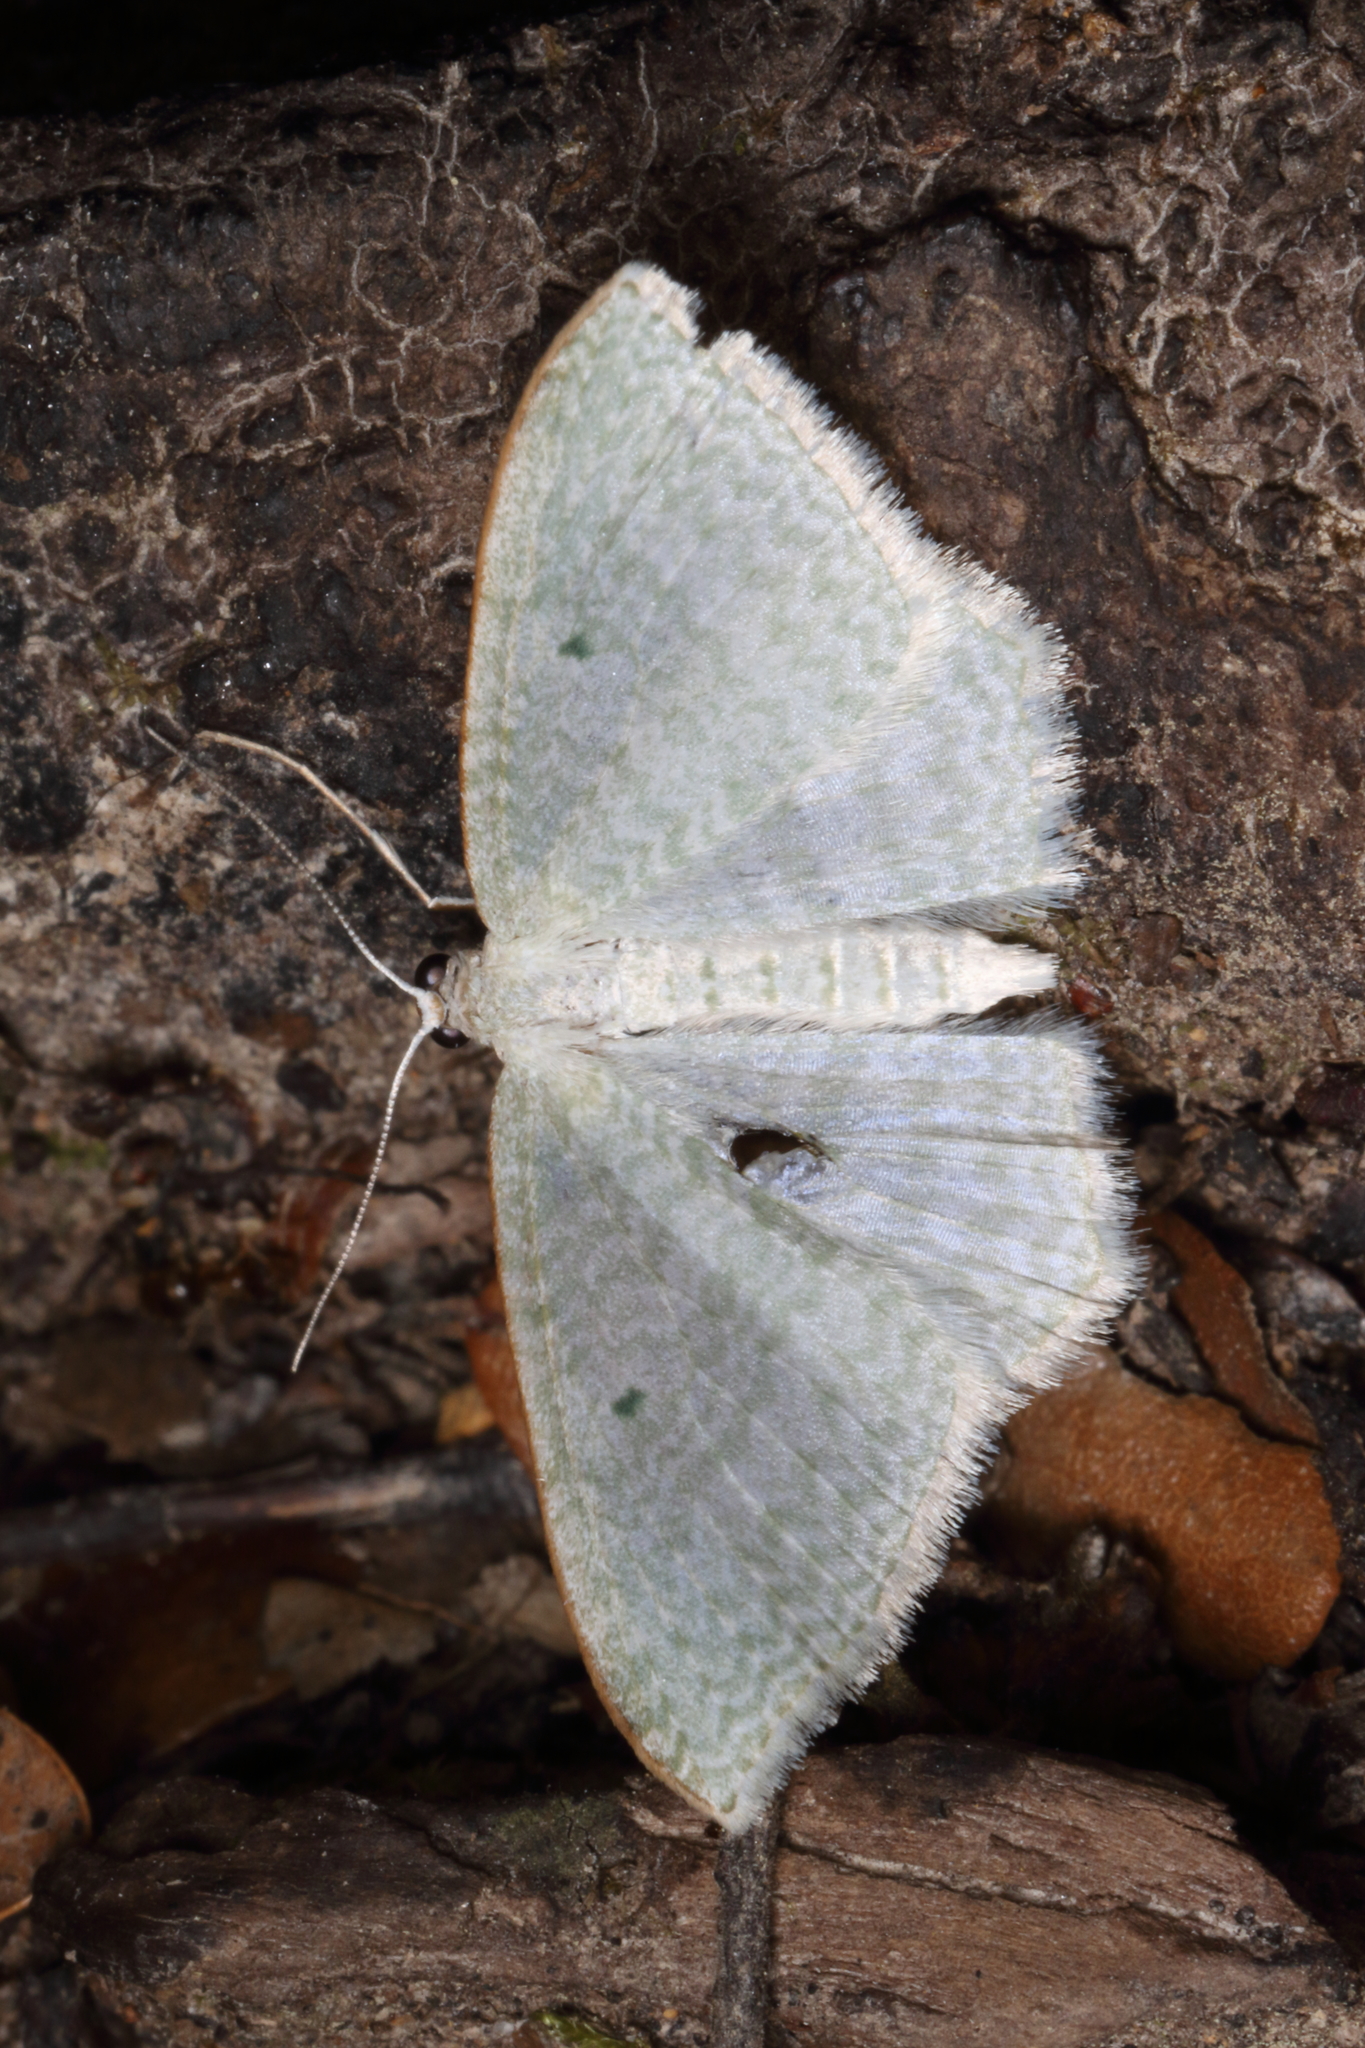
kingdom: Animalia
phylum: Arthropoda
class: Insecta
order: Lepidoptera
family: Geometridae
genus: Poecilasthena
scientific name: Poecilasthena pulchraria
